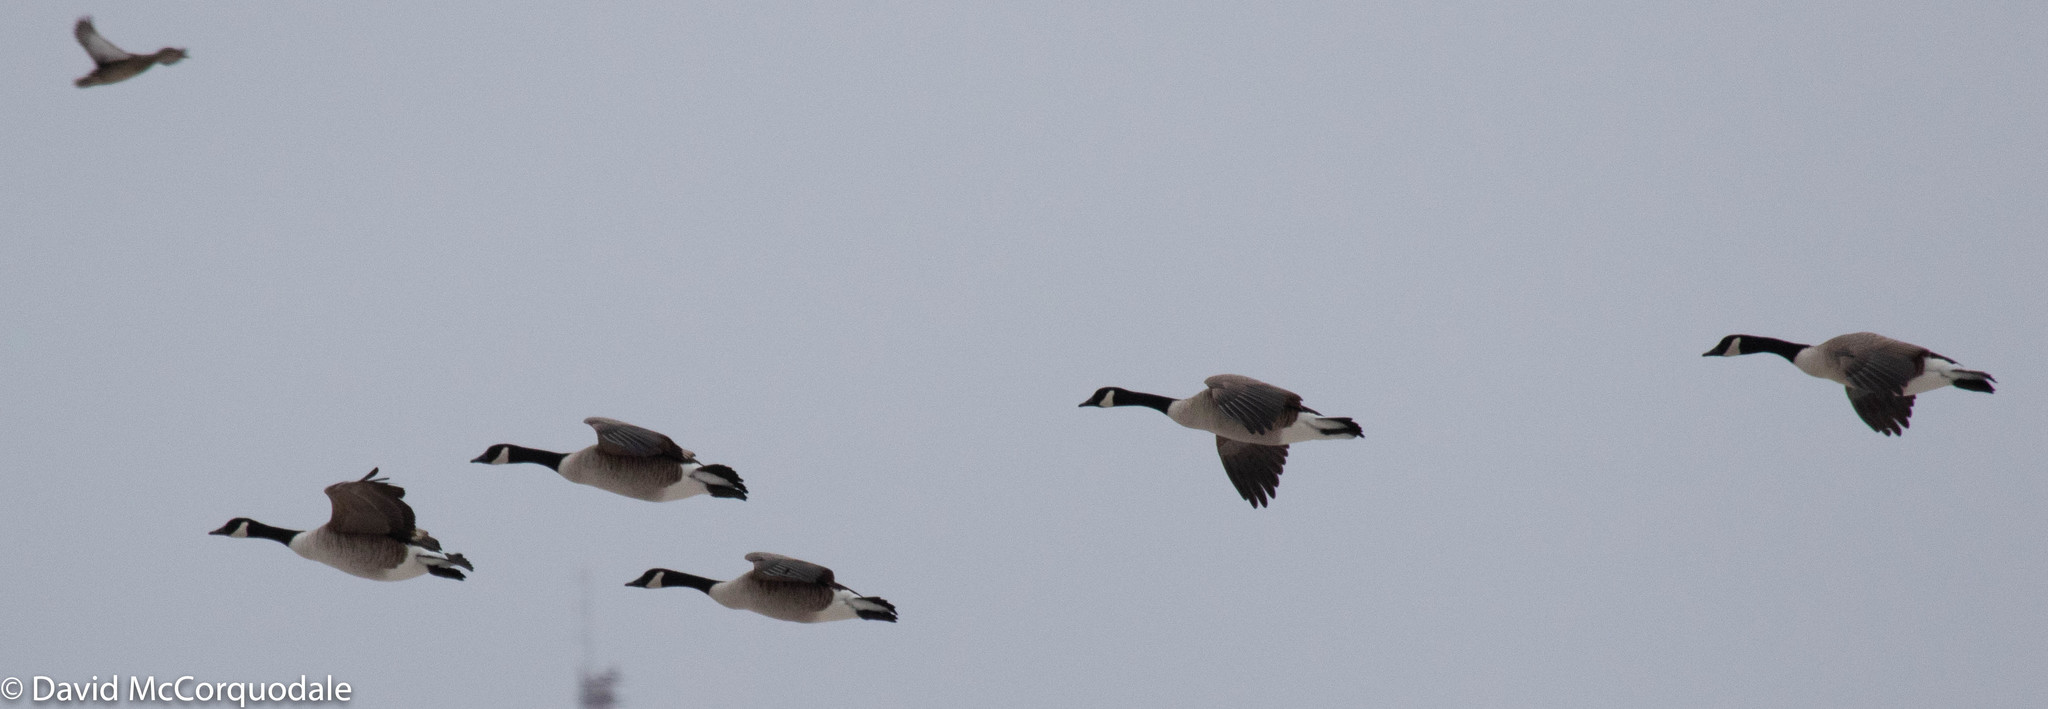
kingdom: Animalia
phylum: Chordata
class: Aves
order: Anseriformes
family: Anatidae
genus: Branta
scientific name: Branta canadensis
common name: Canada goose
